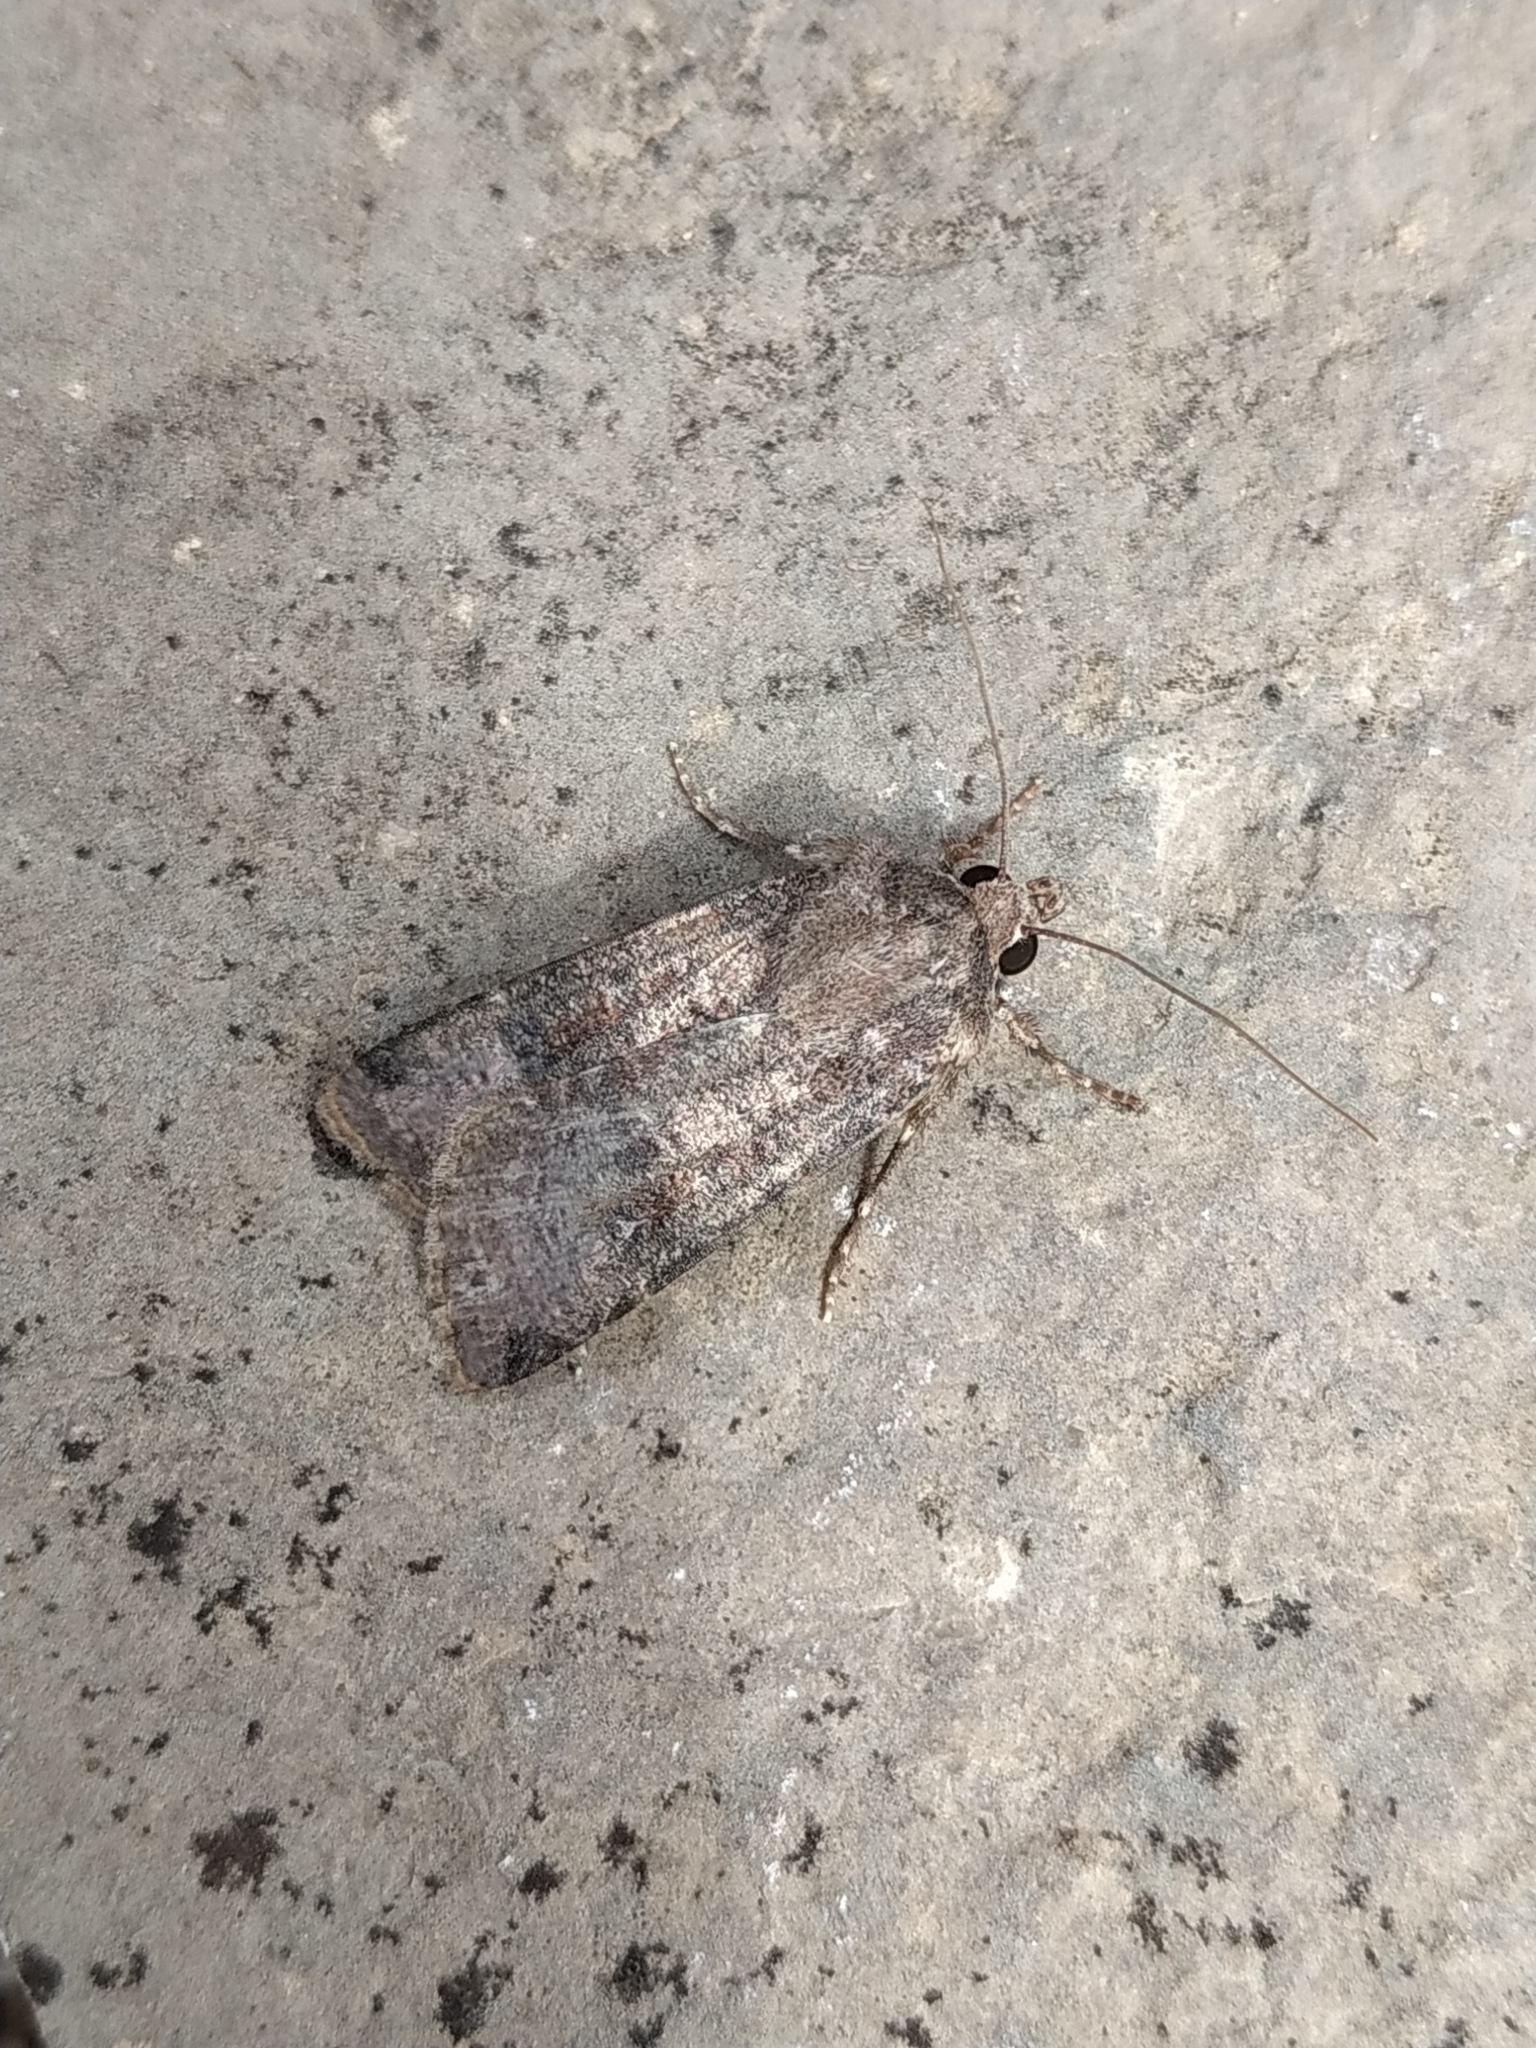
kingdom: Animalia
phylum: Arthropoda
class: Insecta
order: Lepidoptera
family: Noctuidae
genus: Agrotis
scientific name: Agrotis trux
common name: Crescent dart
